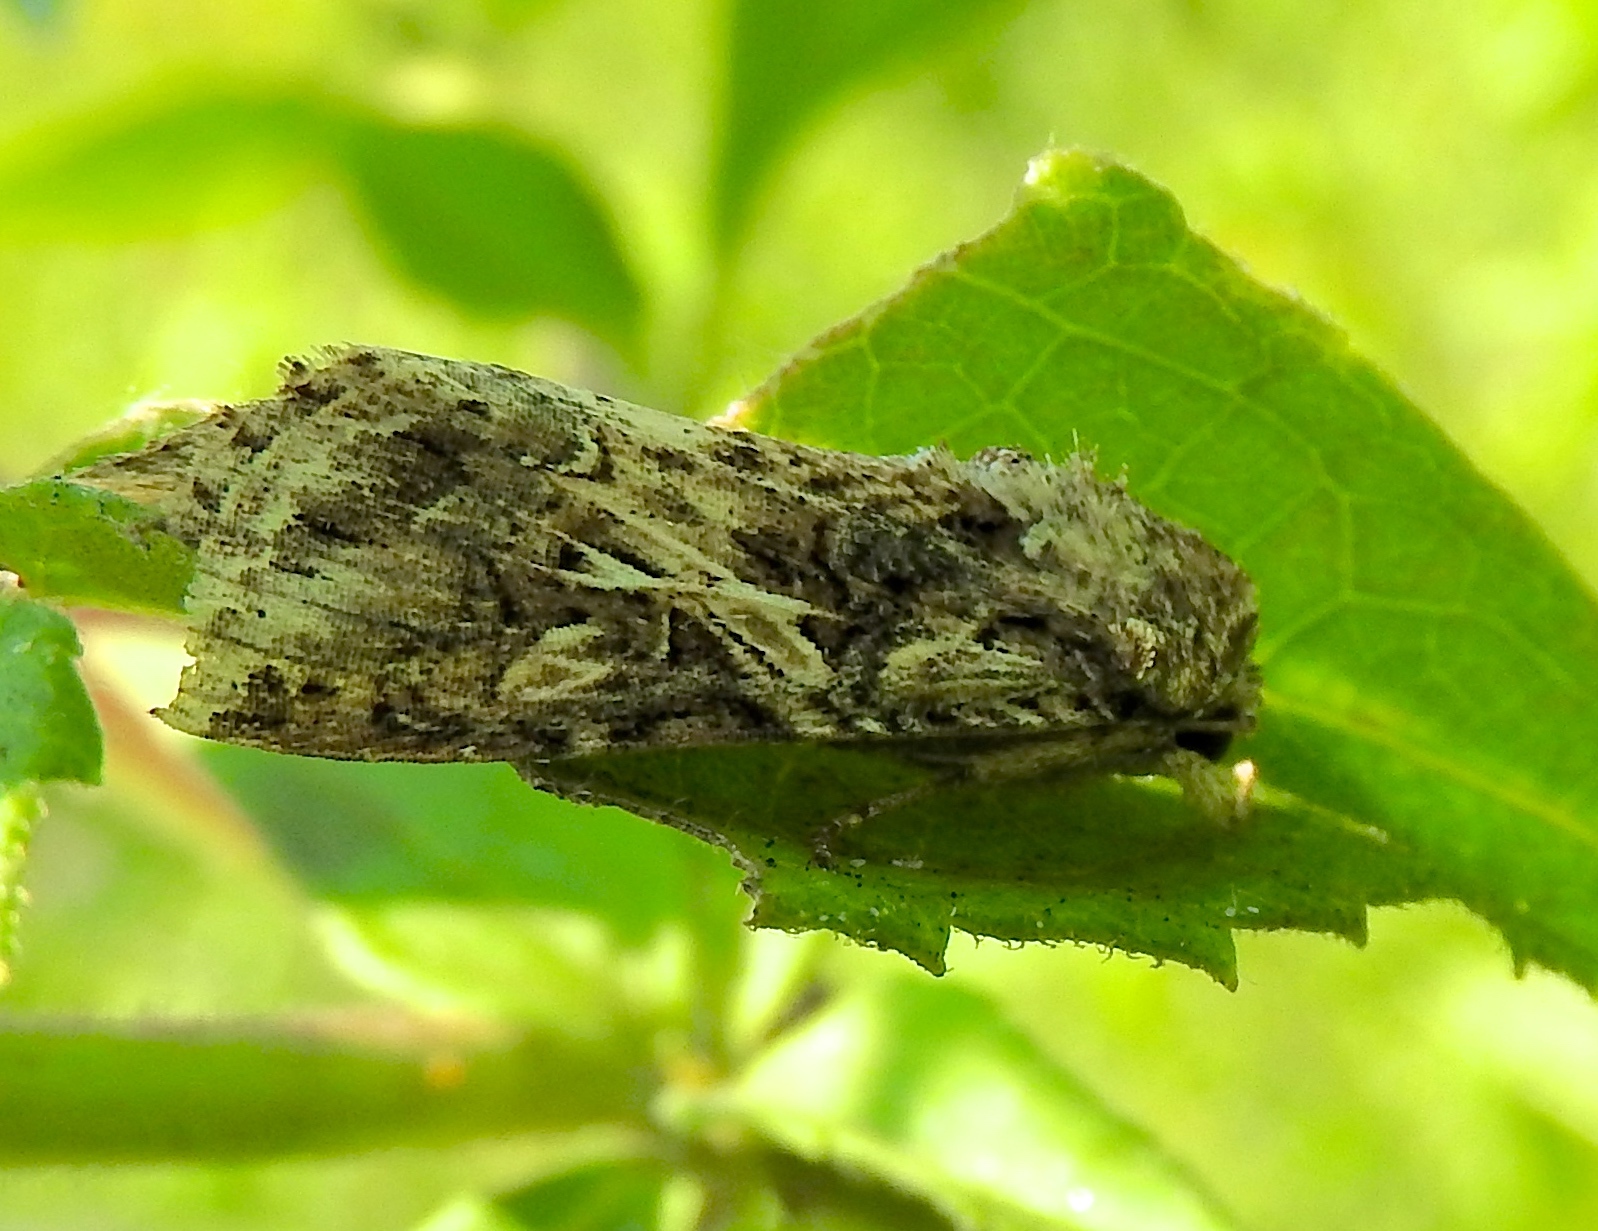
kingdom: Animalia
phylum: Arthropoda
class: Insecta
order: Lepidoptera
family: Noctuidae
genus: Spodoptera
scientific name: Spodoptera
